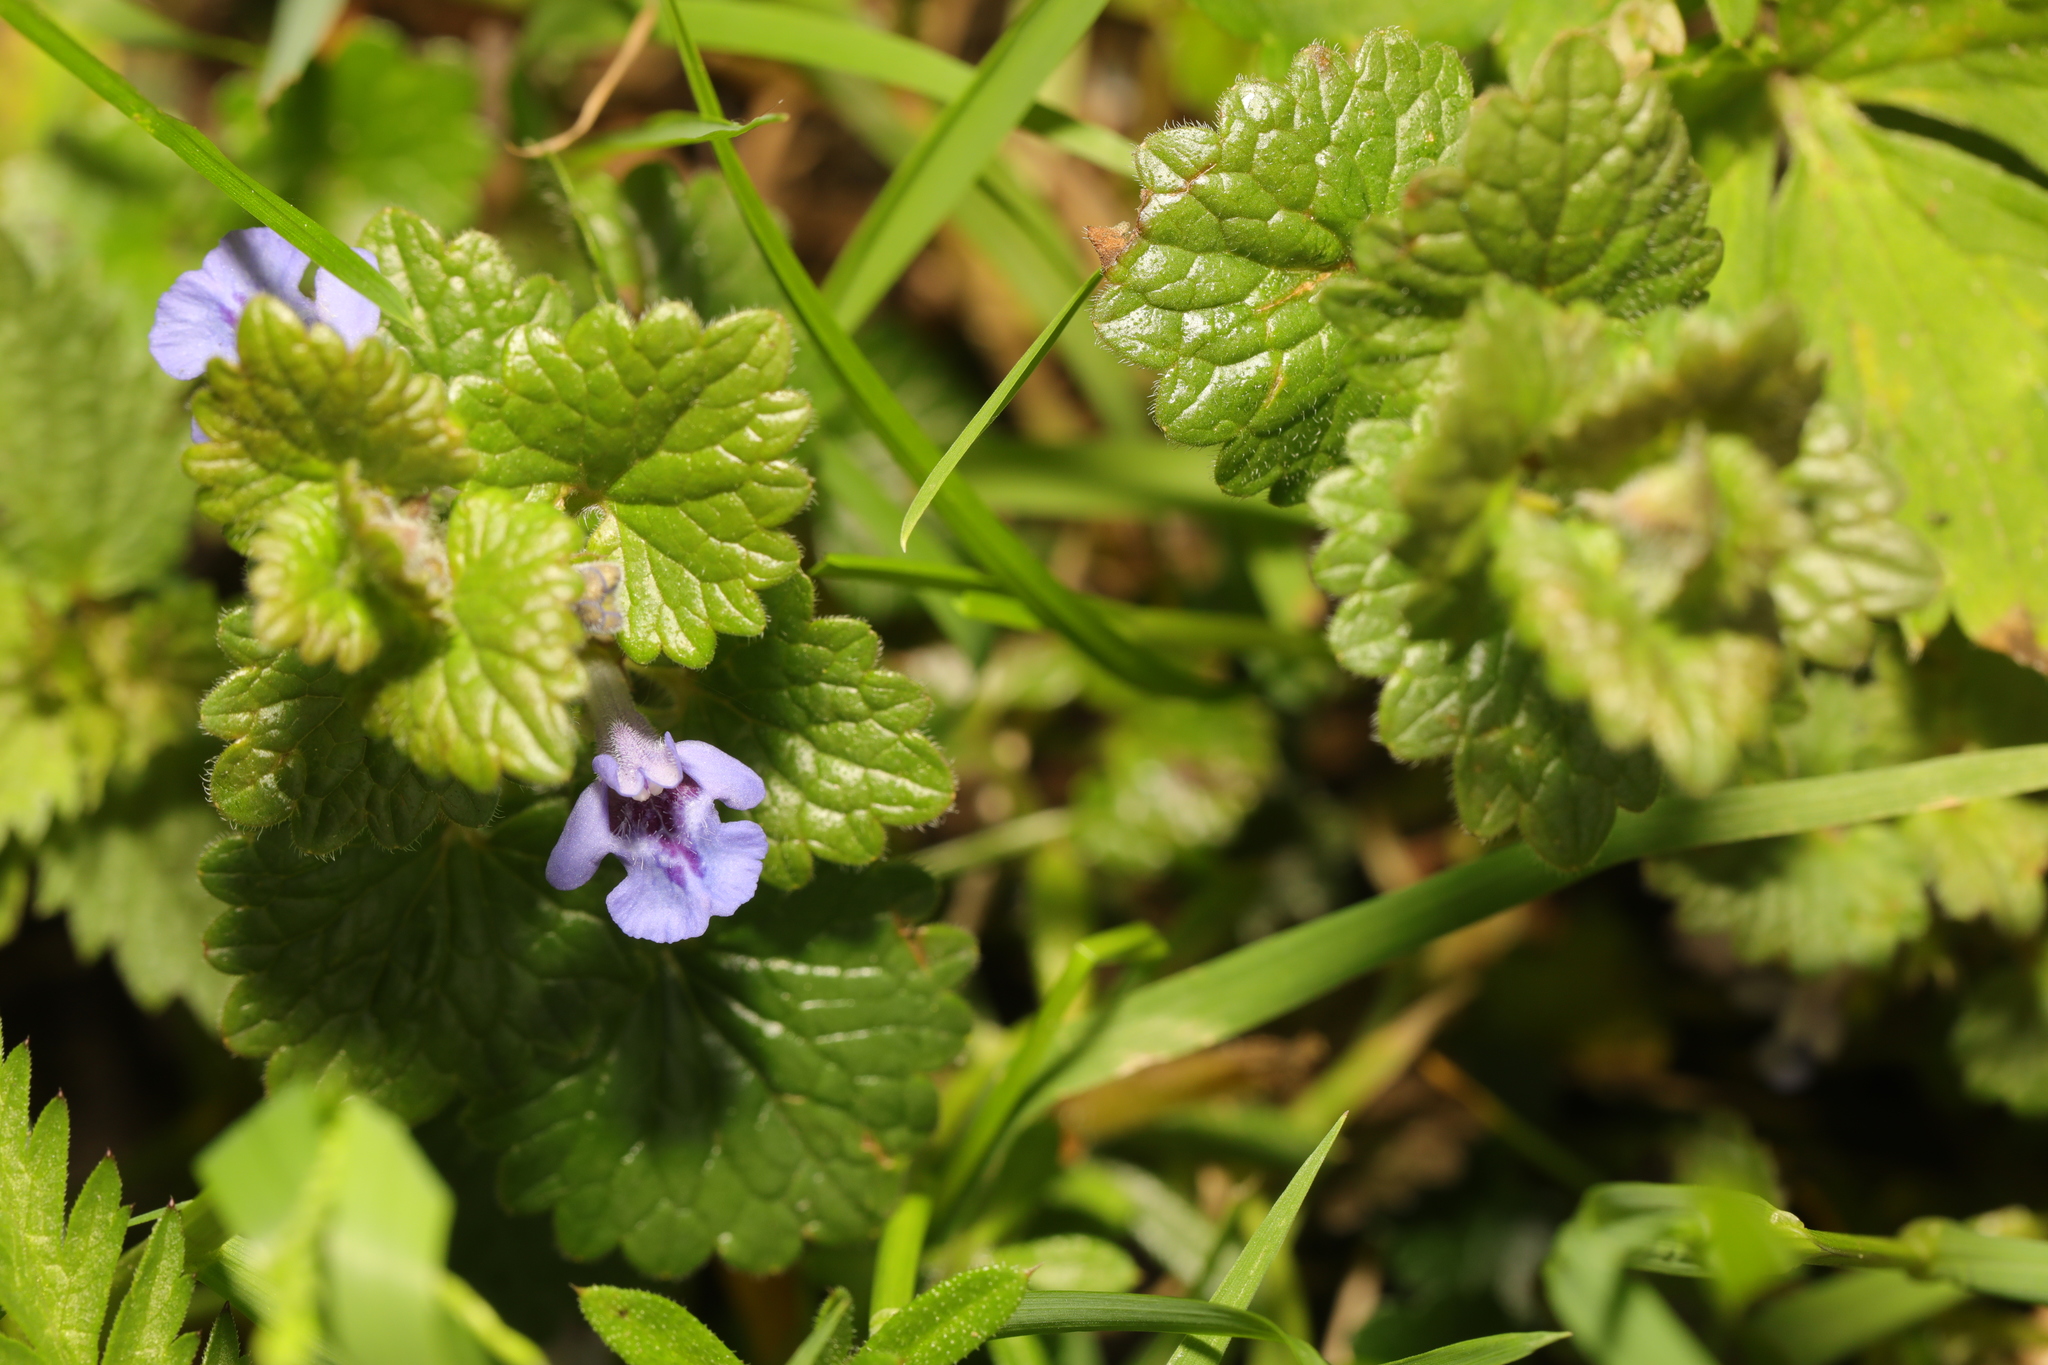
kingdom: Plantae
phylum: Tracheophyta
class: Magnoliopsida
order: Lamiales
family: Lamiaceae
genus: Glechoma
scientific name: Glechoma hederacea
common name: Ground ivy
